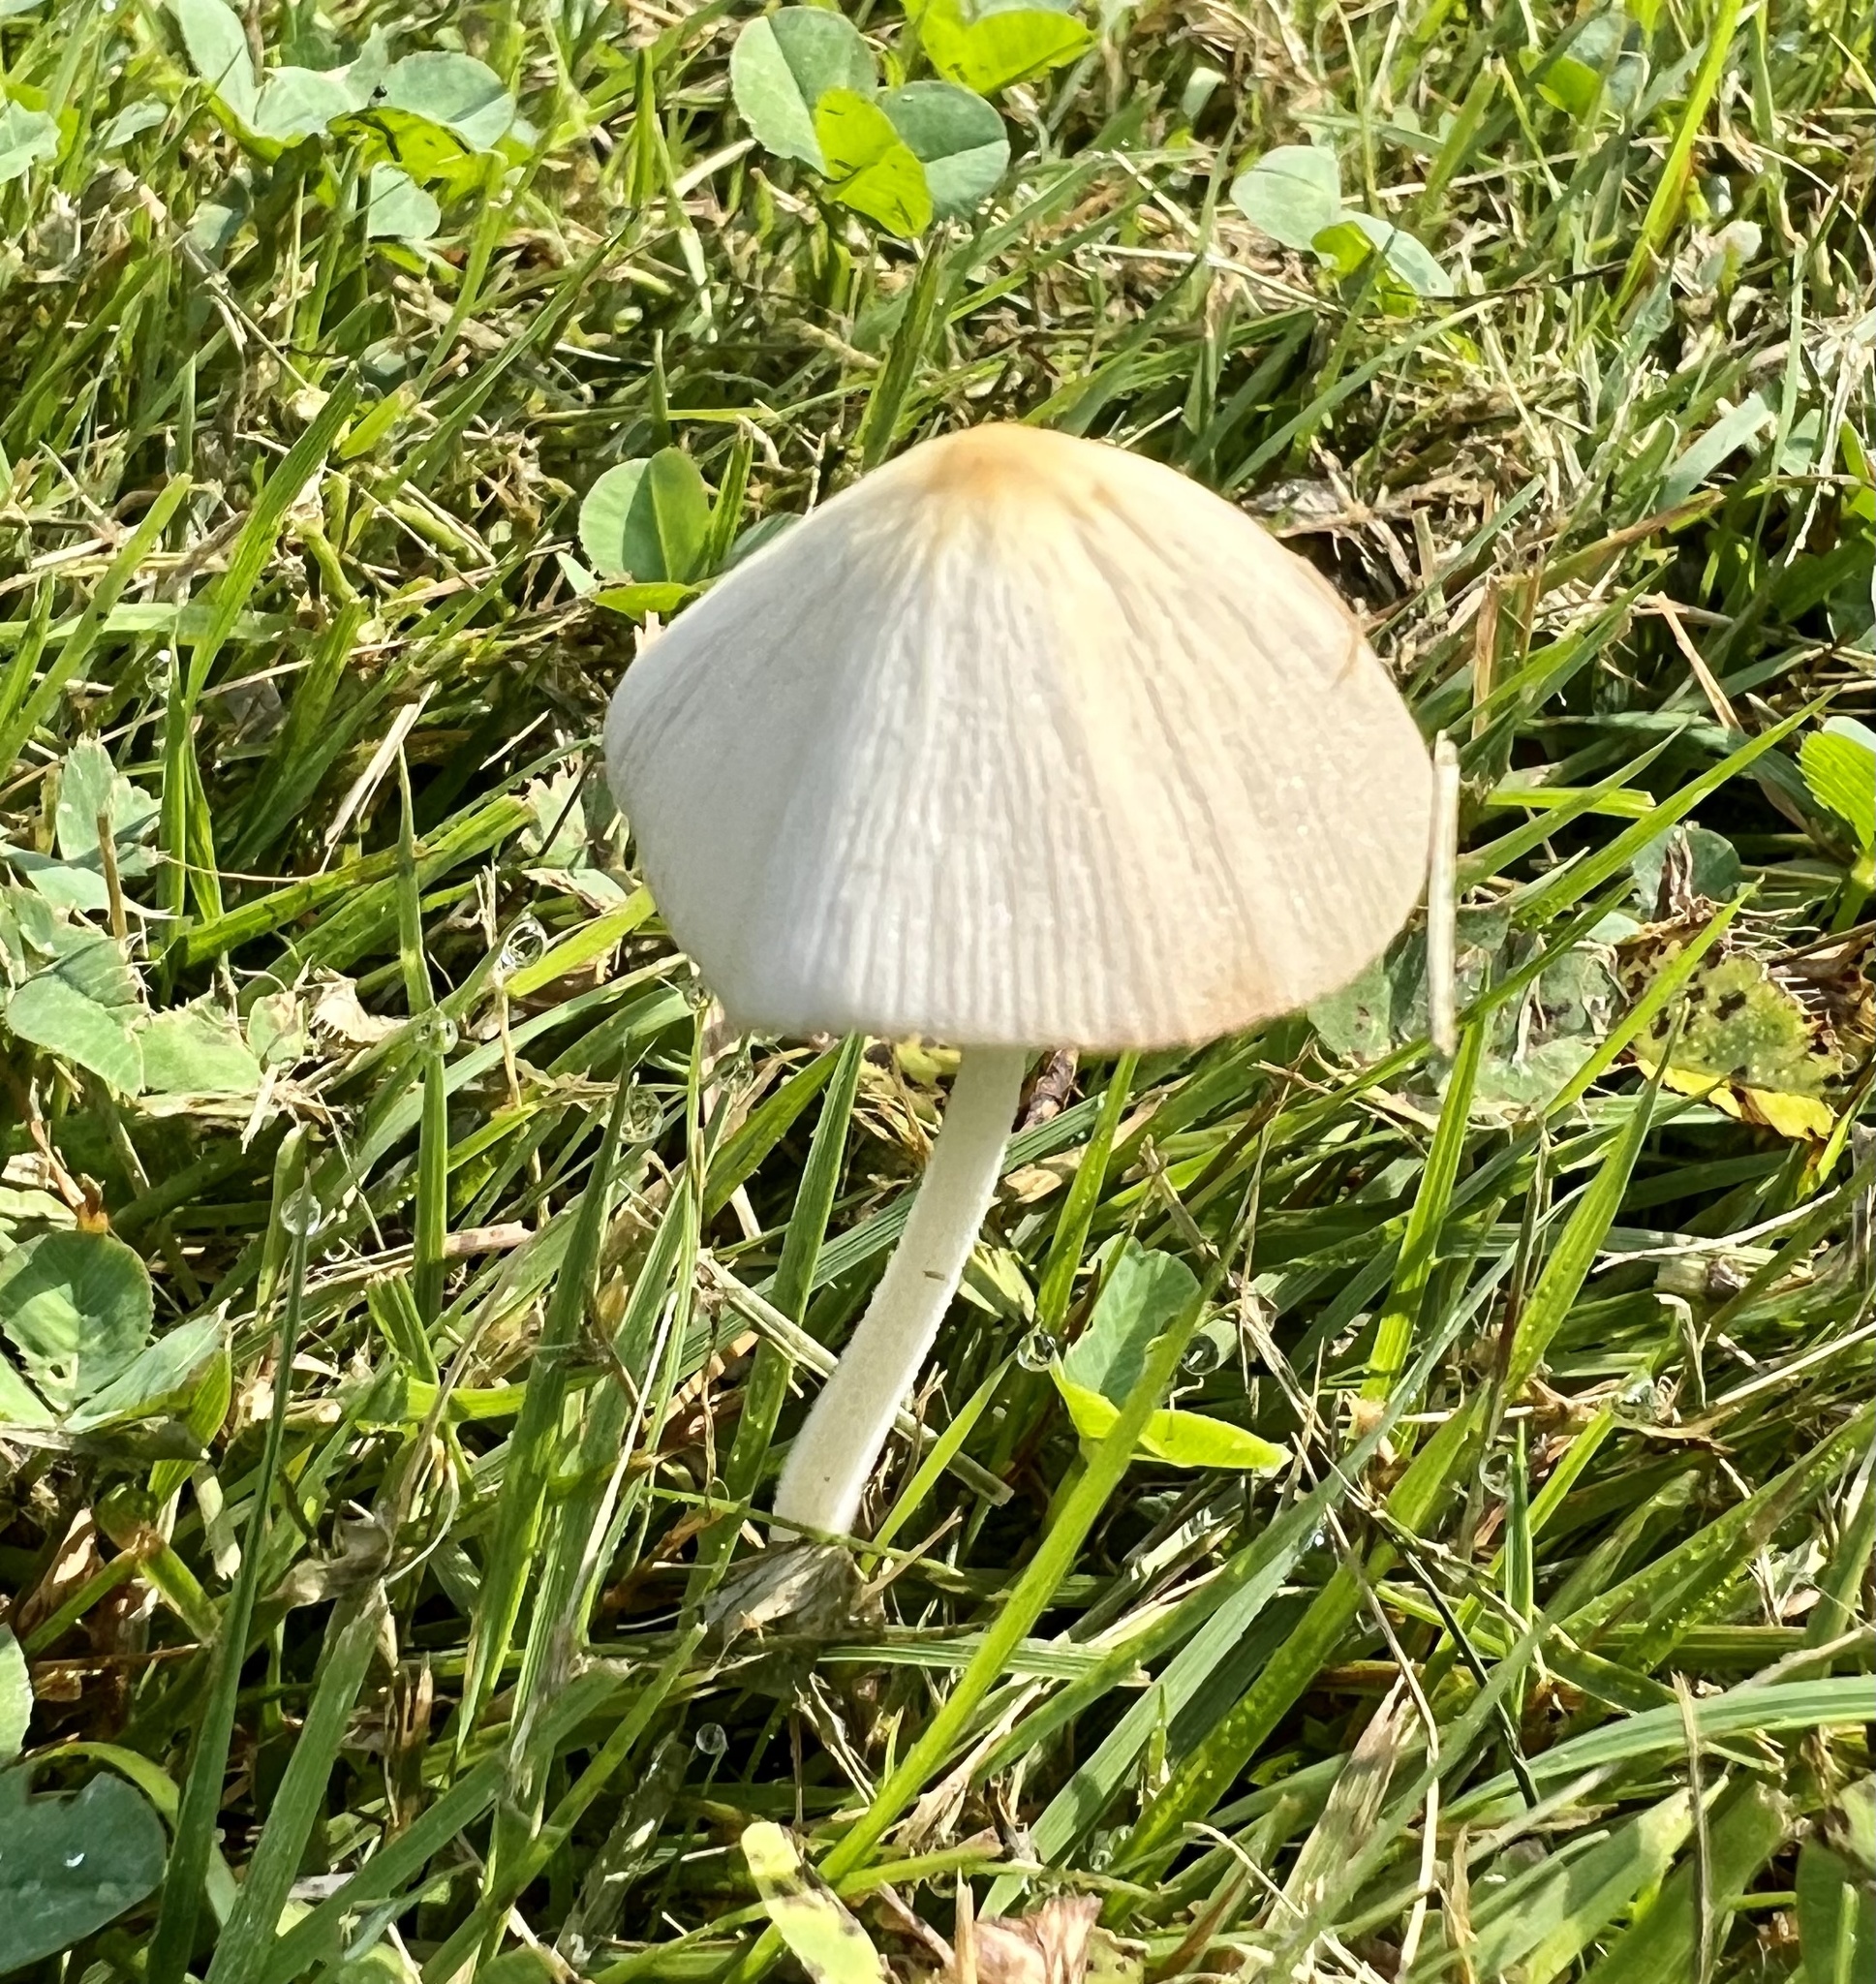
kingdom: Fungi
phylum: Basidiomycota
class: Agaricomycetes
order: Agaricales
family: Bolbitiaceae
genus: Conocybe
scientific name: Conocybe apala
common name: Milky conecap
